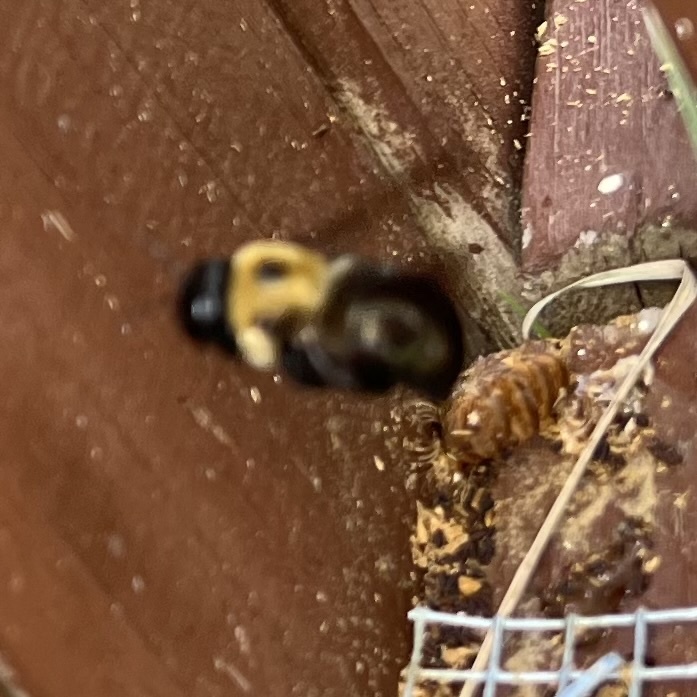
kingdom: Animalia
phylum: Arthropoda
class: Insecta
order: Hymenoptera
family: Apidae
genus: Xylocopa
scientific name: Xylocopa virginica
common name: Carpenter bee
